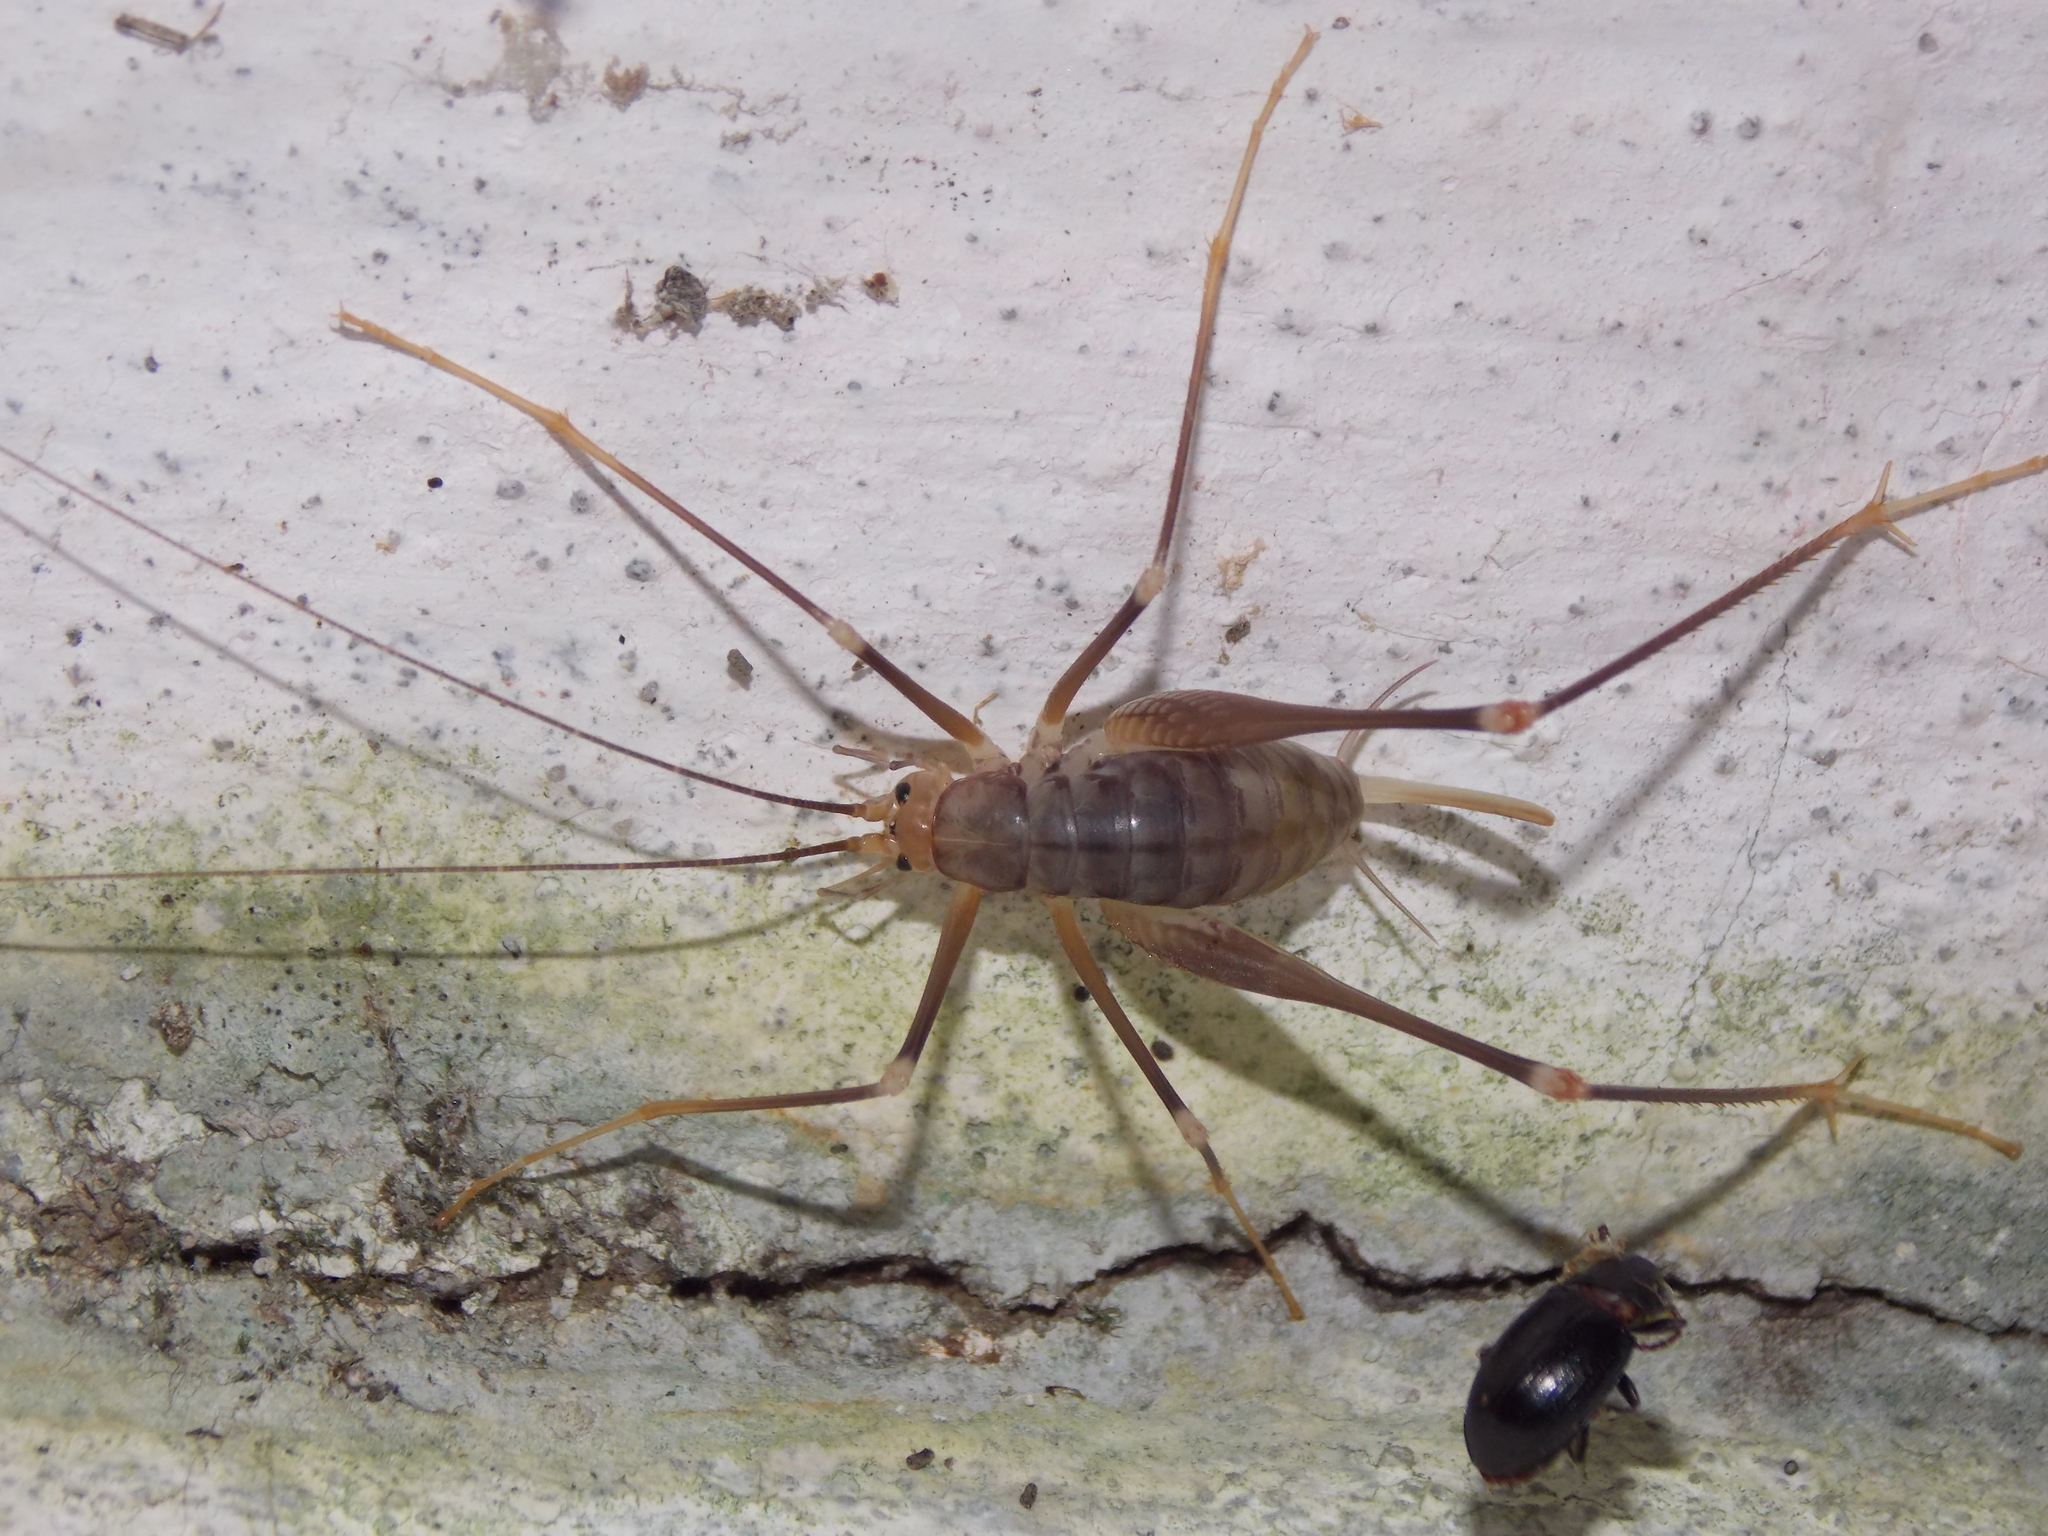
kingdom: Animalia
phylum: Arthropoda
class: Insecta
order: Orthoptera
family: Rhaphidophoridae
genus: Dolichopoda
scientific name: Dolichopoda azami
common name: Azam's cave-cricket
